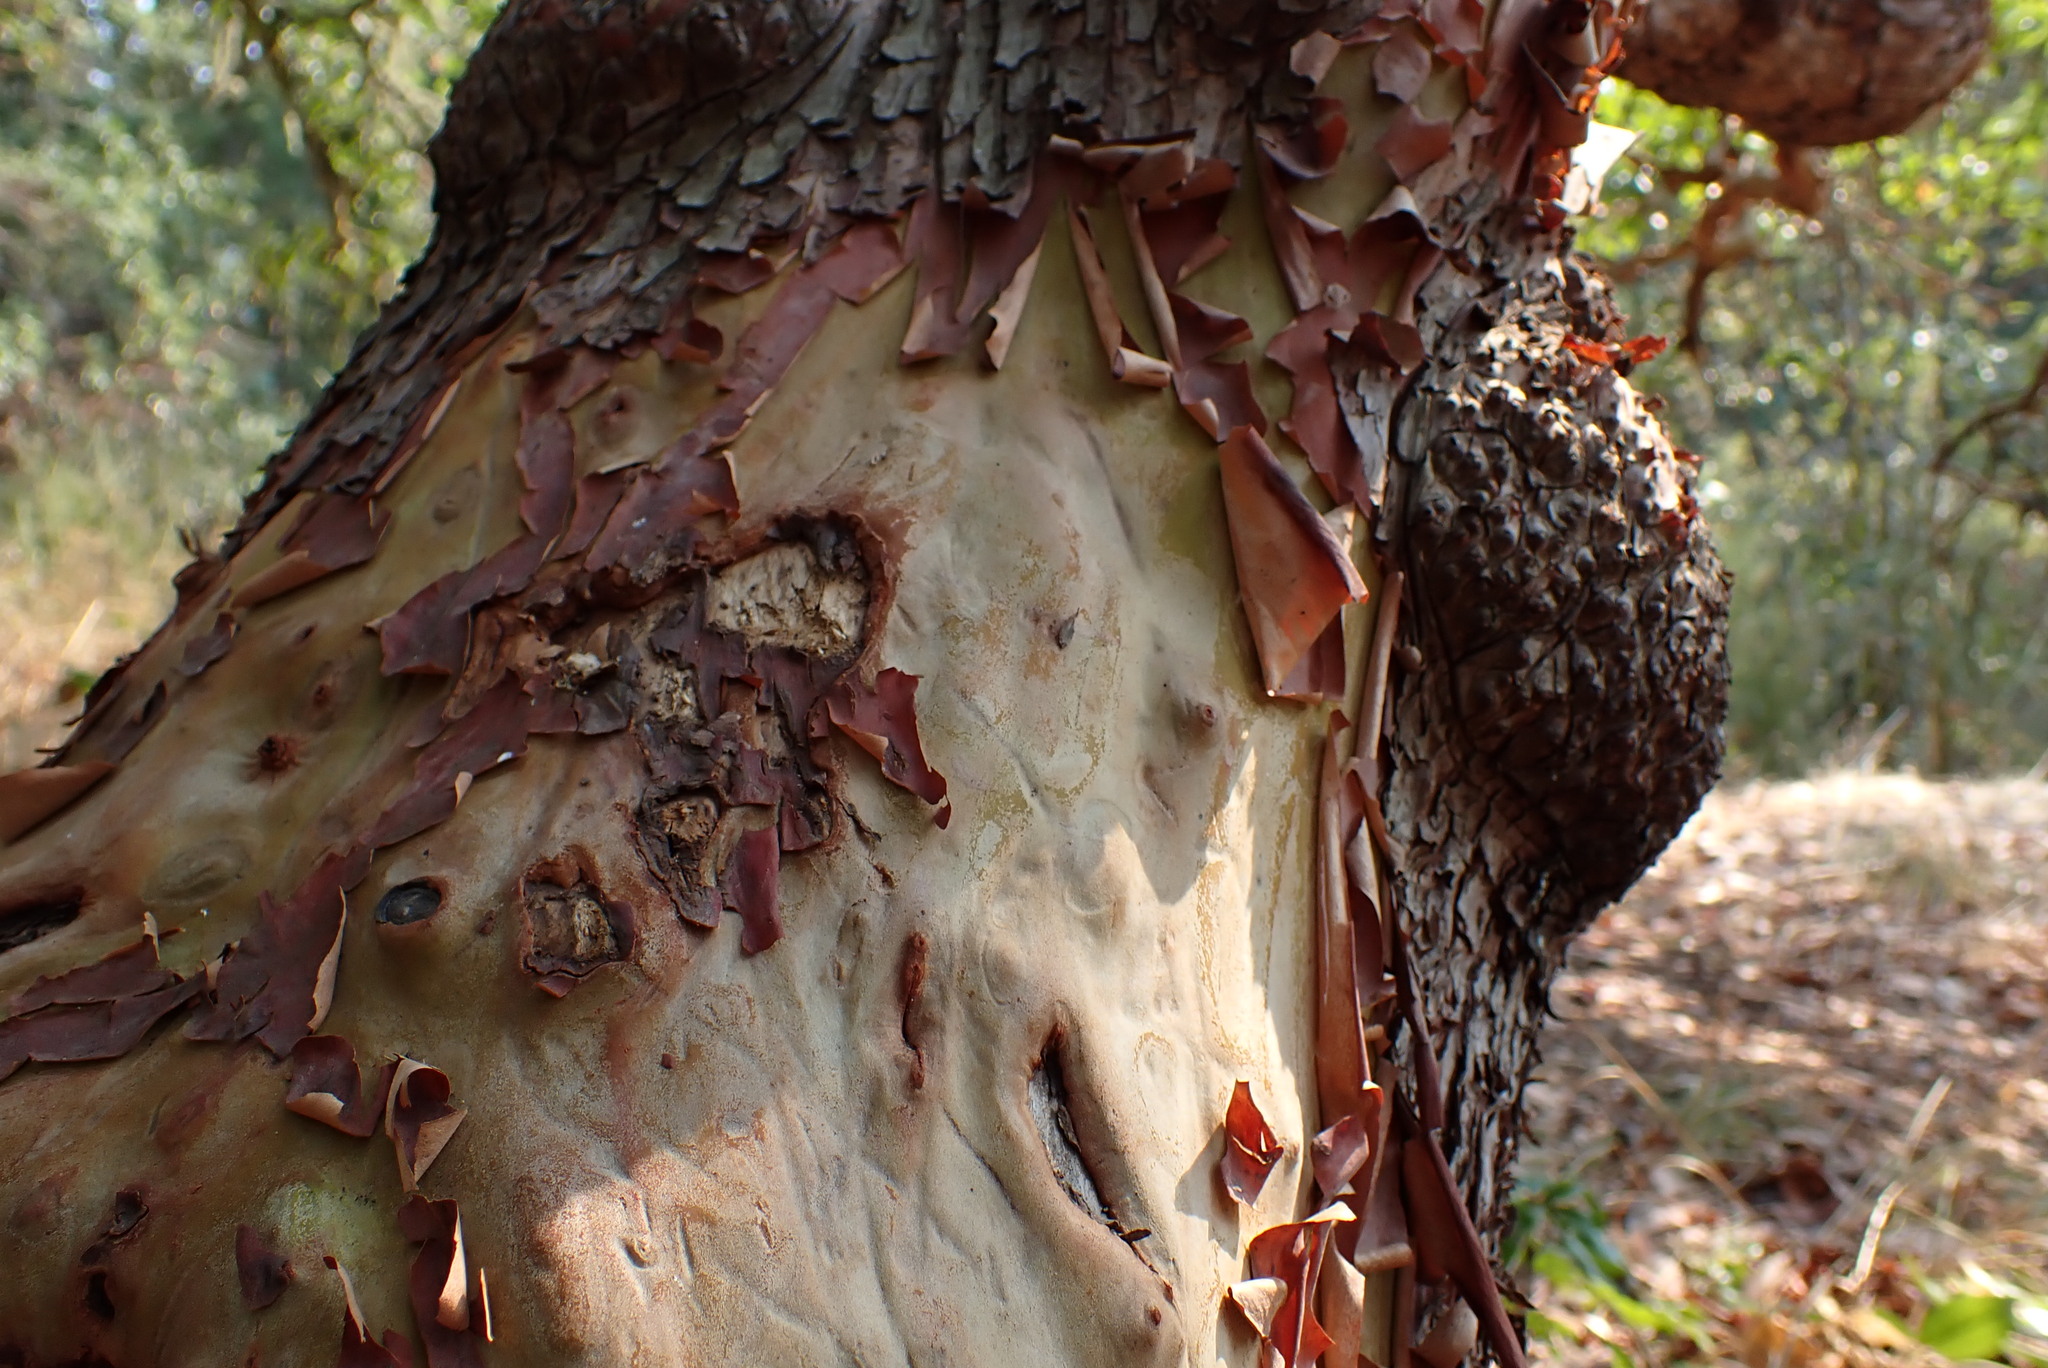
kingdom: Plantae
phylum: Tracheophyta
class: Magnoliopsida
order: Ericales
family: Ericaceae
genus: Arbutus
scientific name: Arbutus menziesii
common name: Pacific madrone
